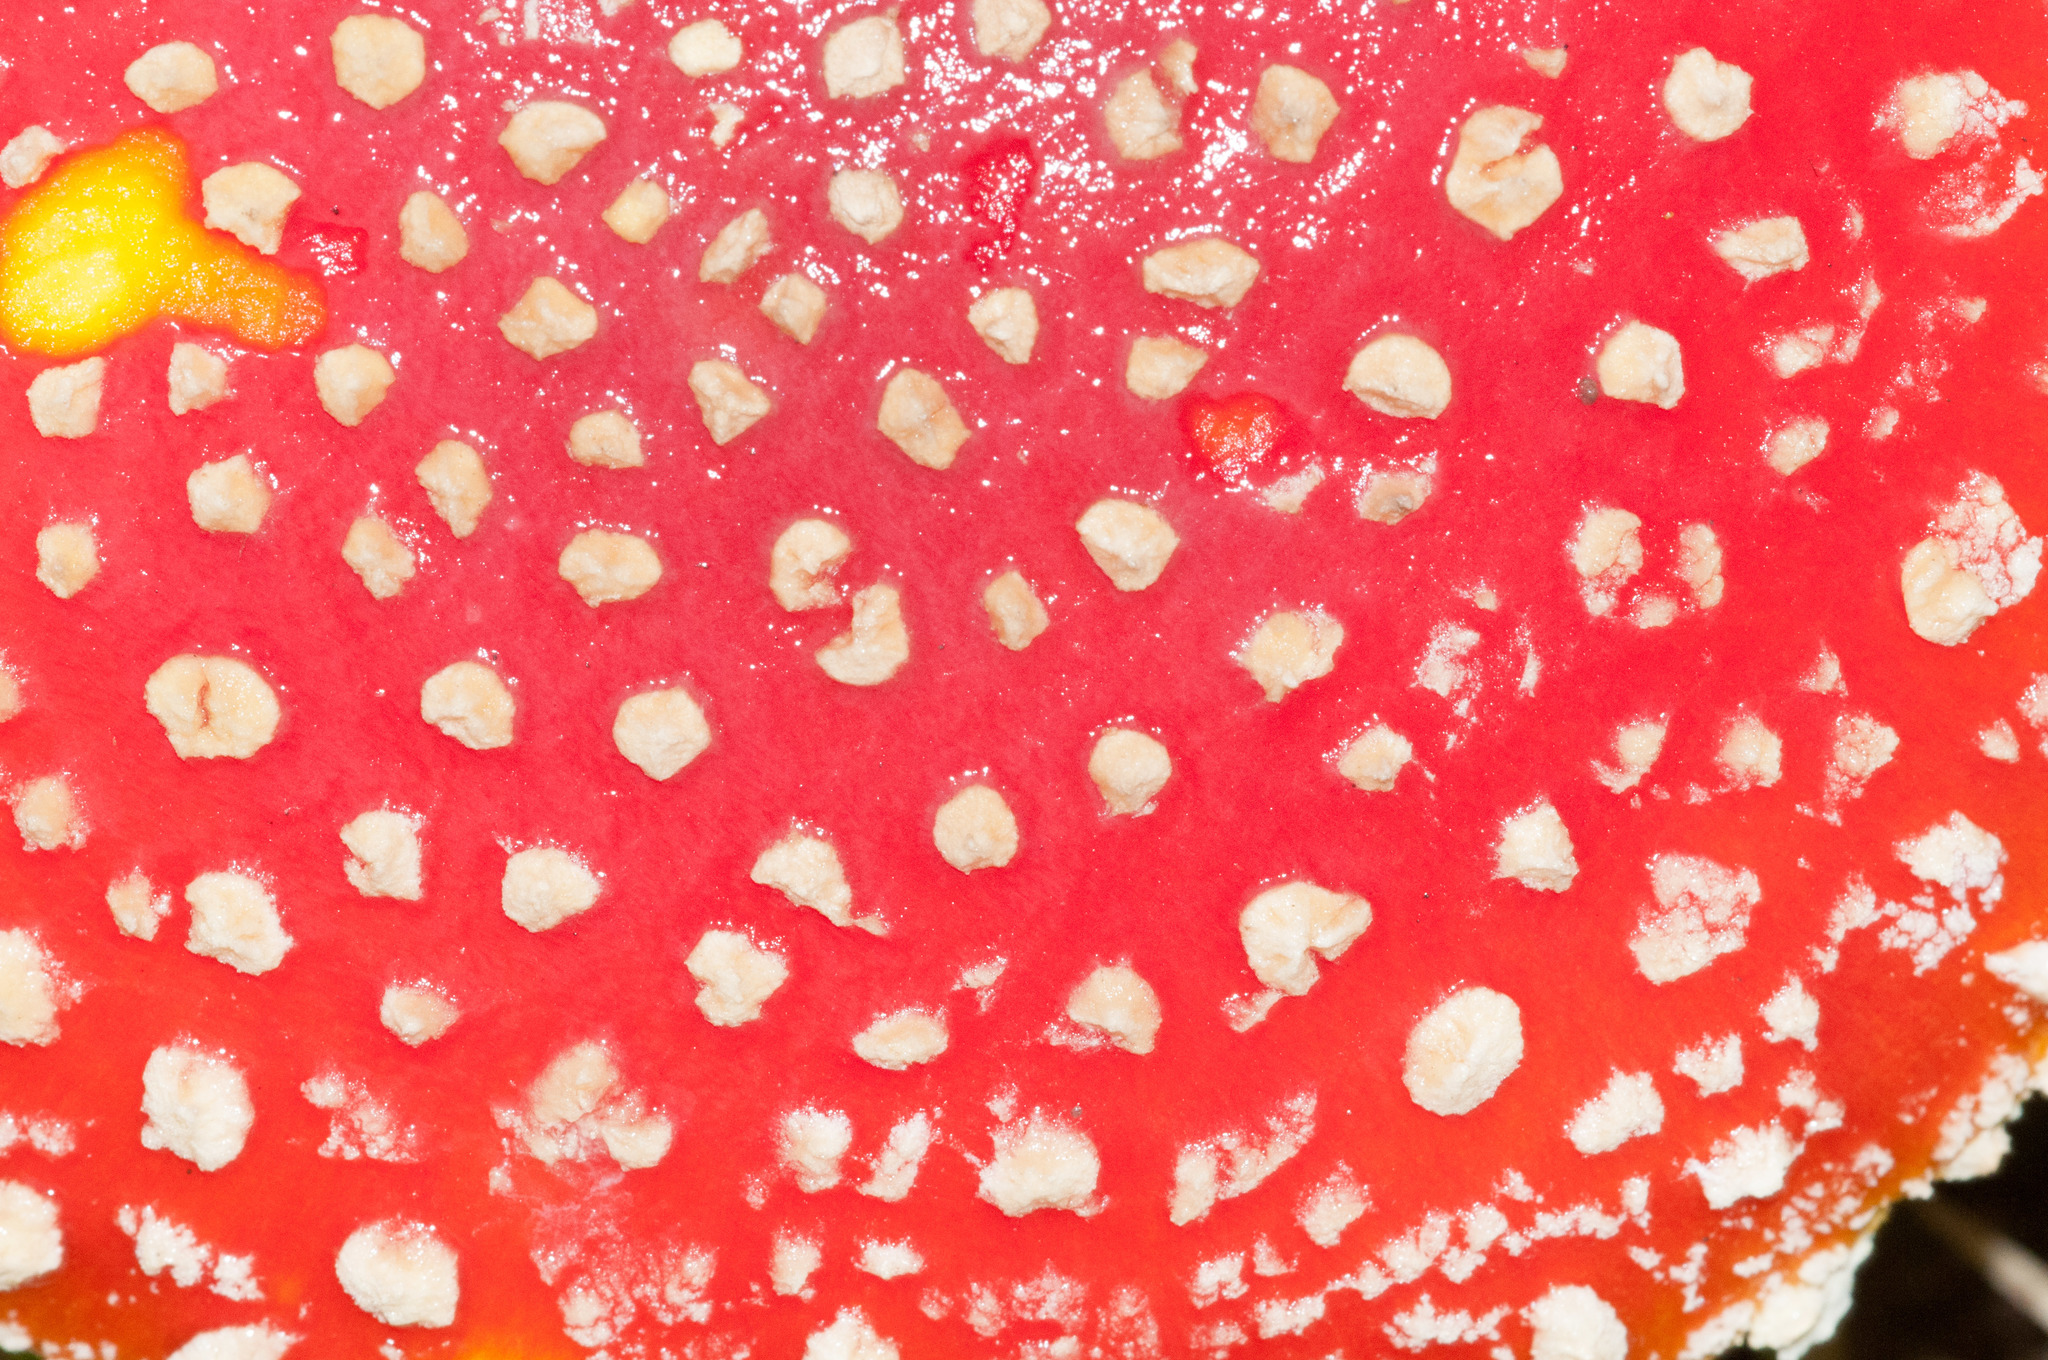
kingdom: Fungi
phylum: Basidiomycota
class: Agaricomycetes
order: Agaricales
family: Amanitaceae
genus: Amanita
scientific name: Amanita muscaria
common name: Fly agaric
